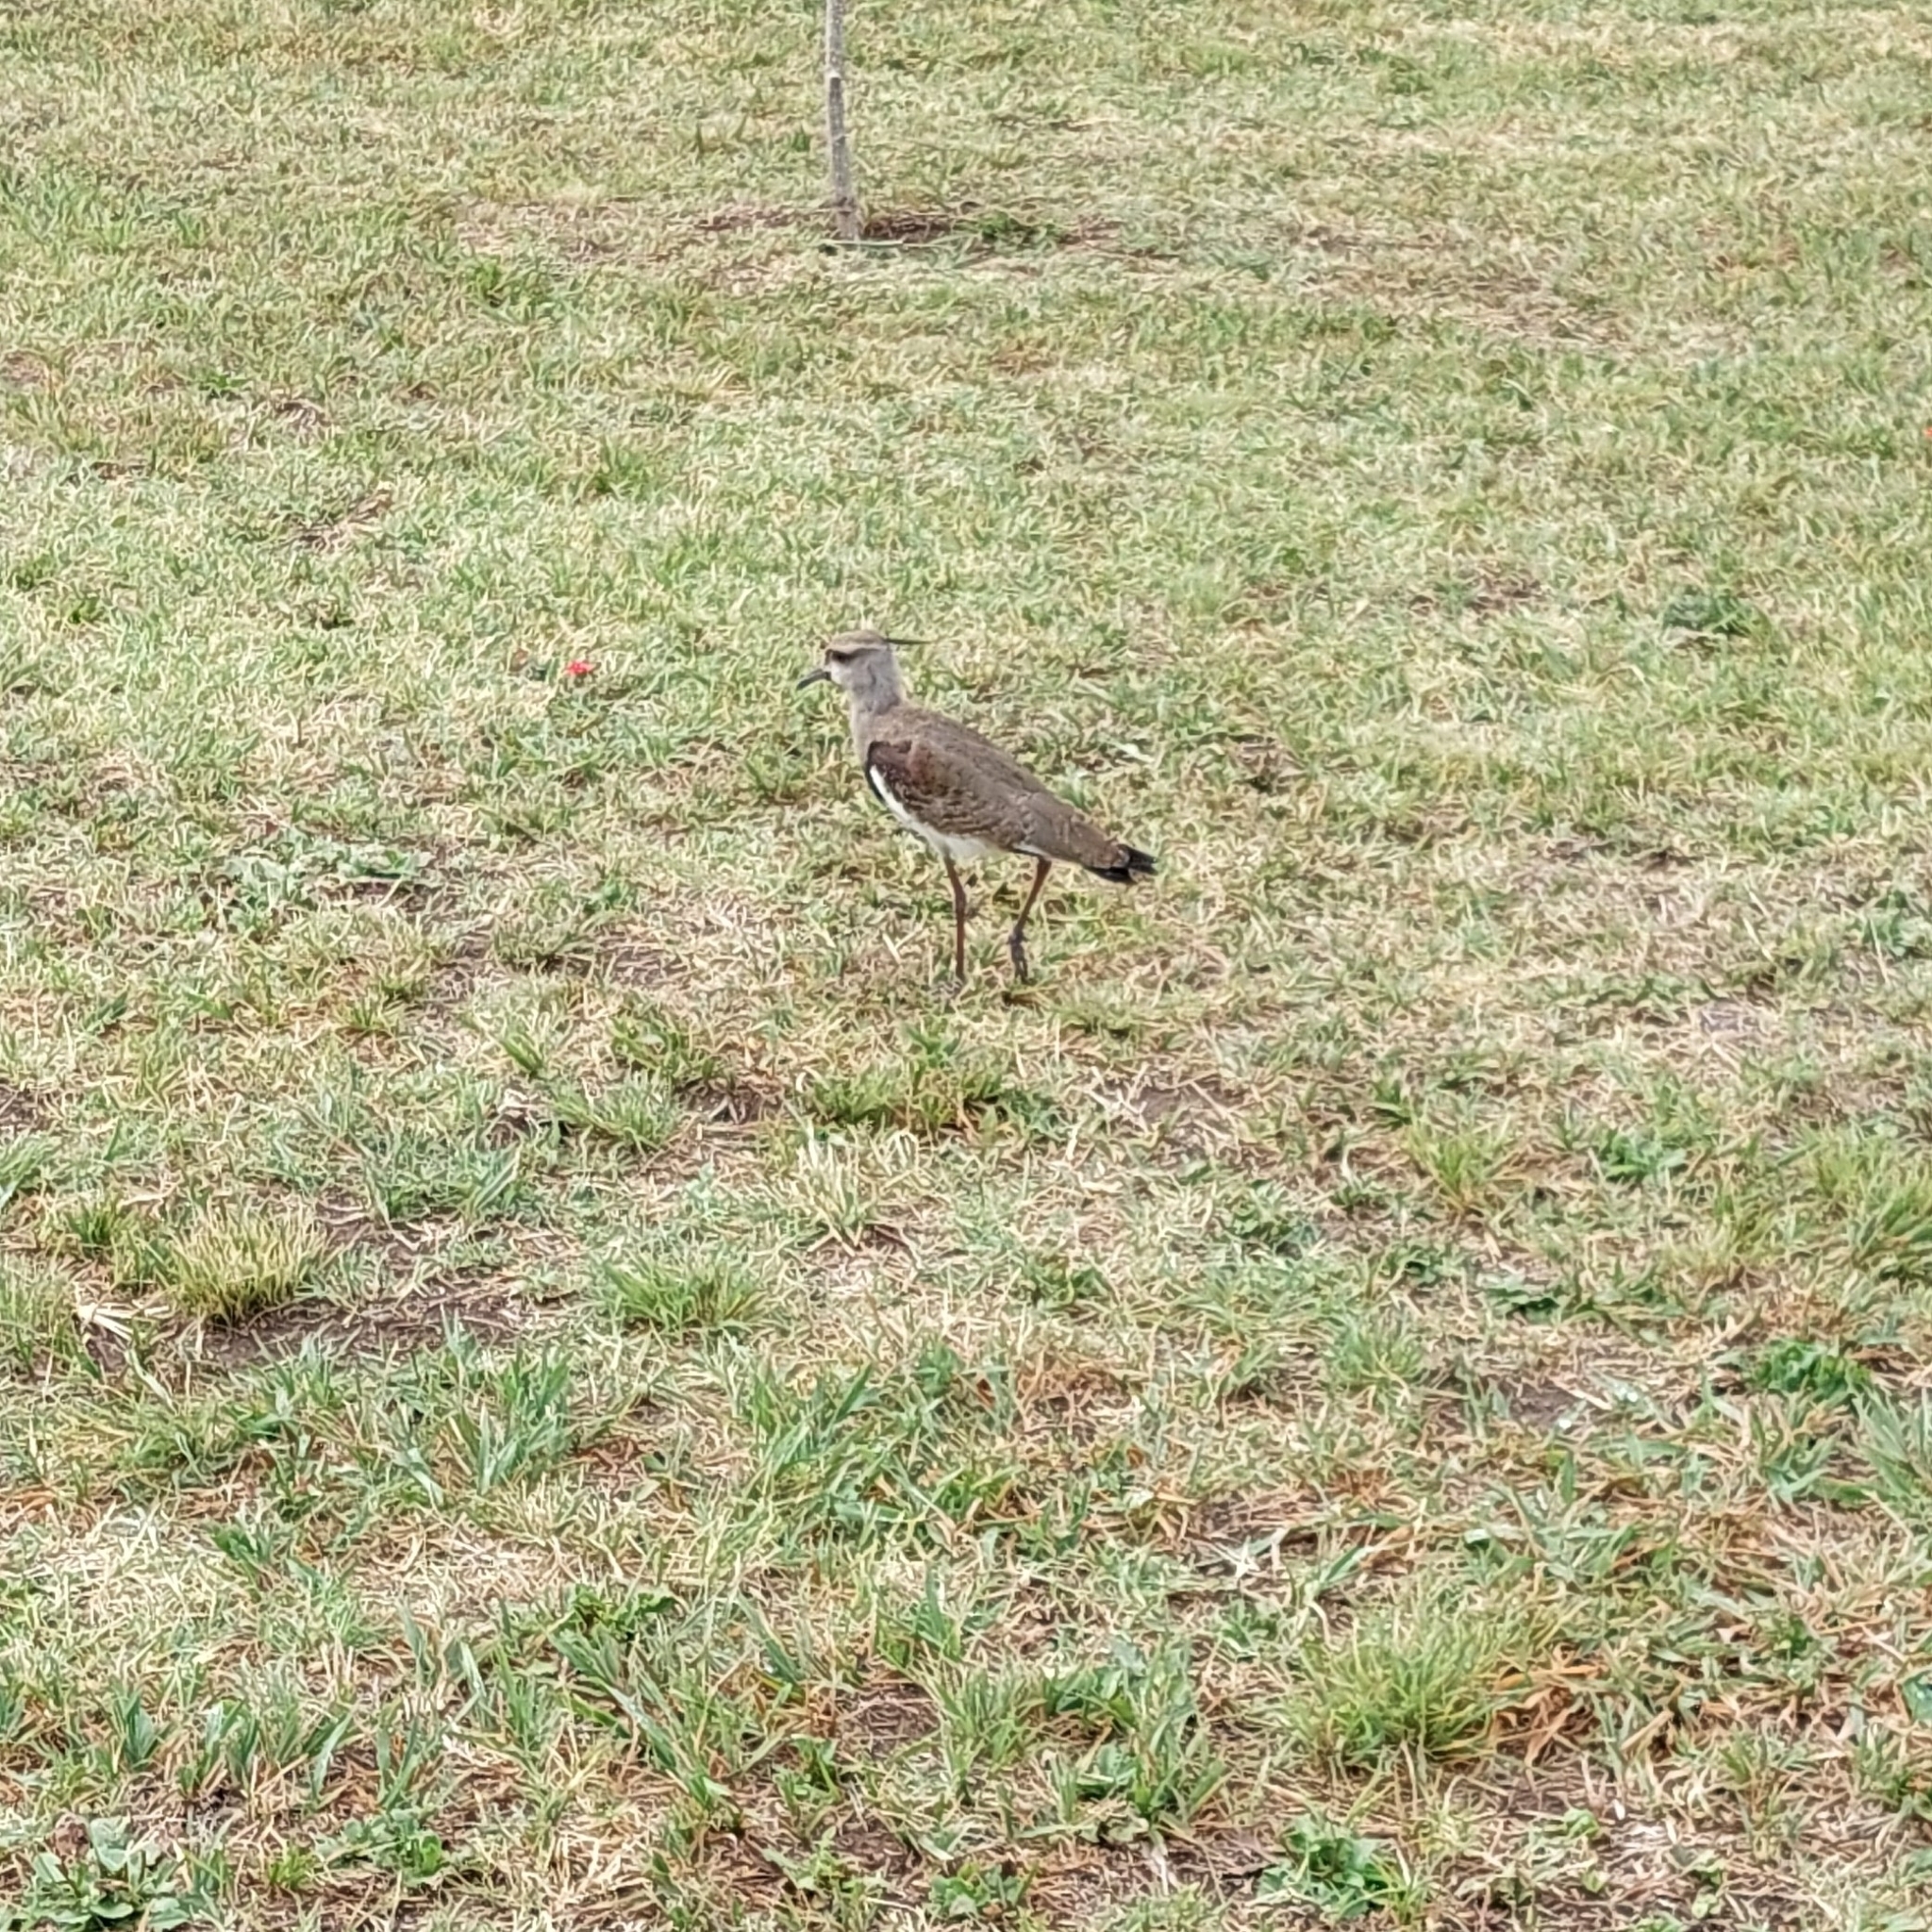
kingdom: Animalia
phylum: Chordata
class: Aves
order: Charadriiformes
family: Charadriidae
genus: Vanellus
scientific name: Vanellus chilensis
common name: Southern lapwing
